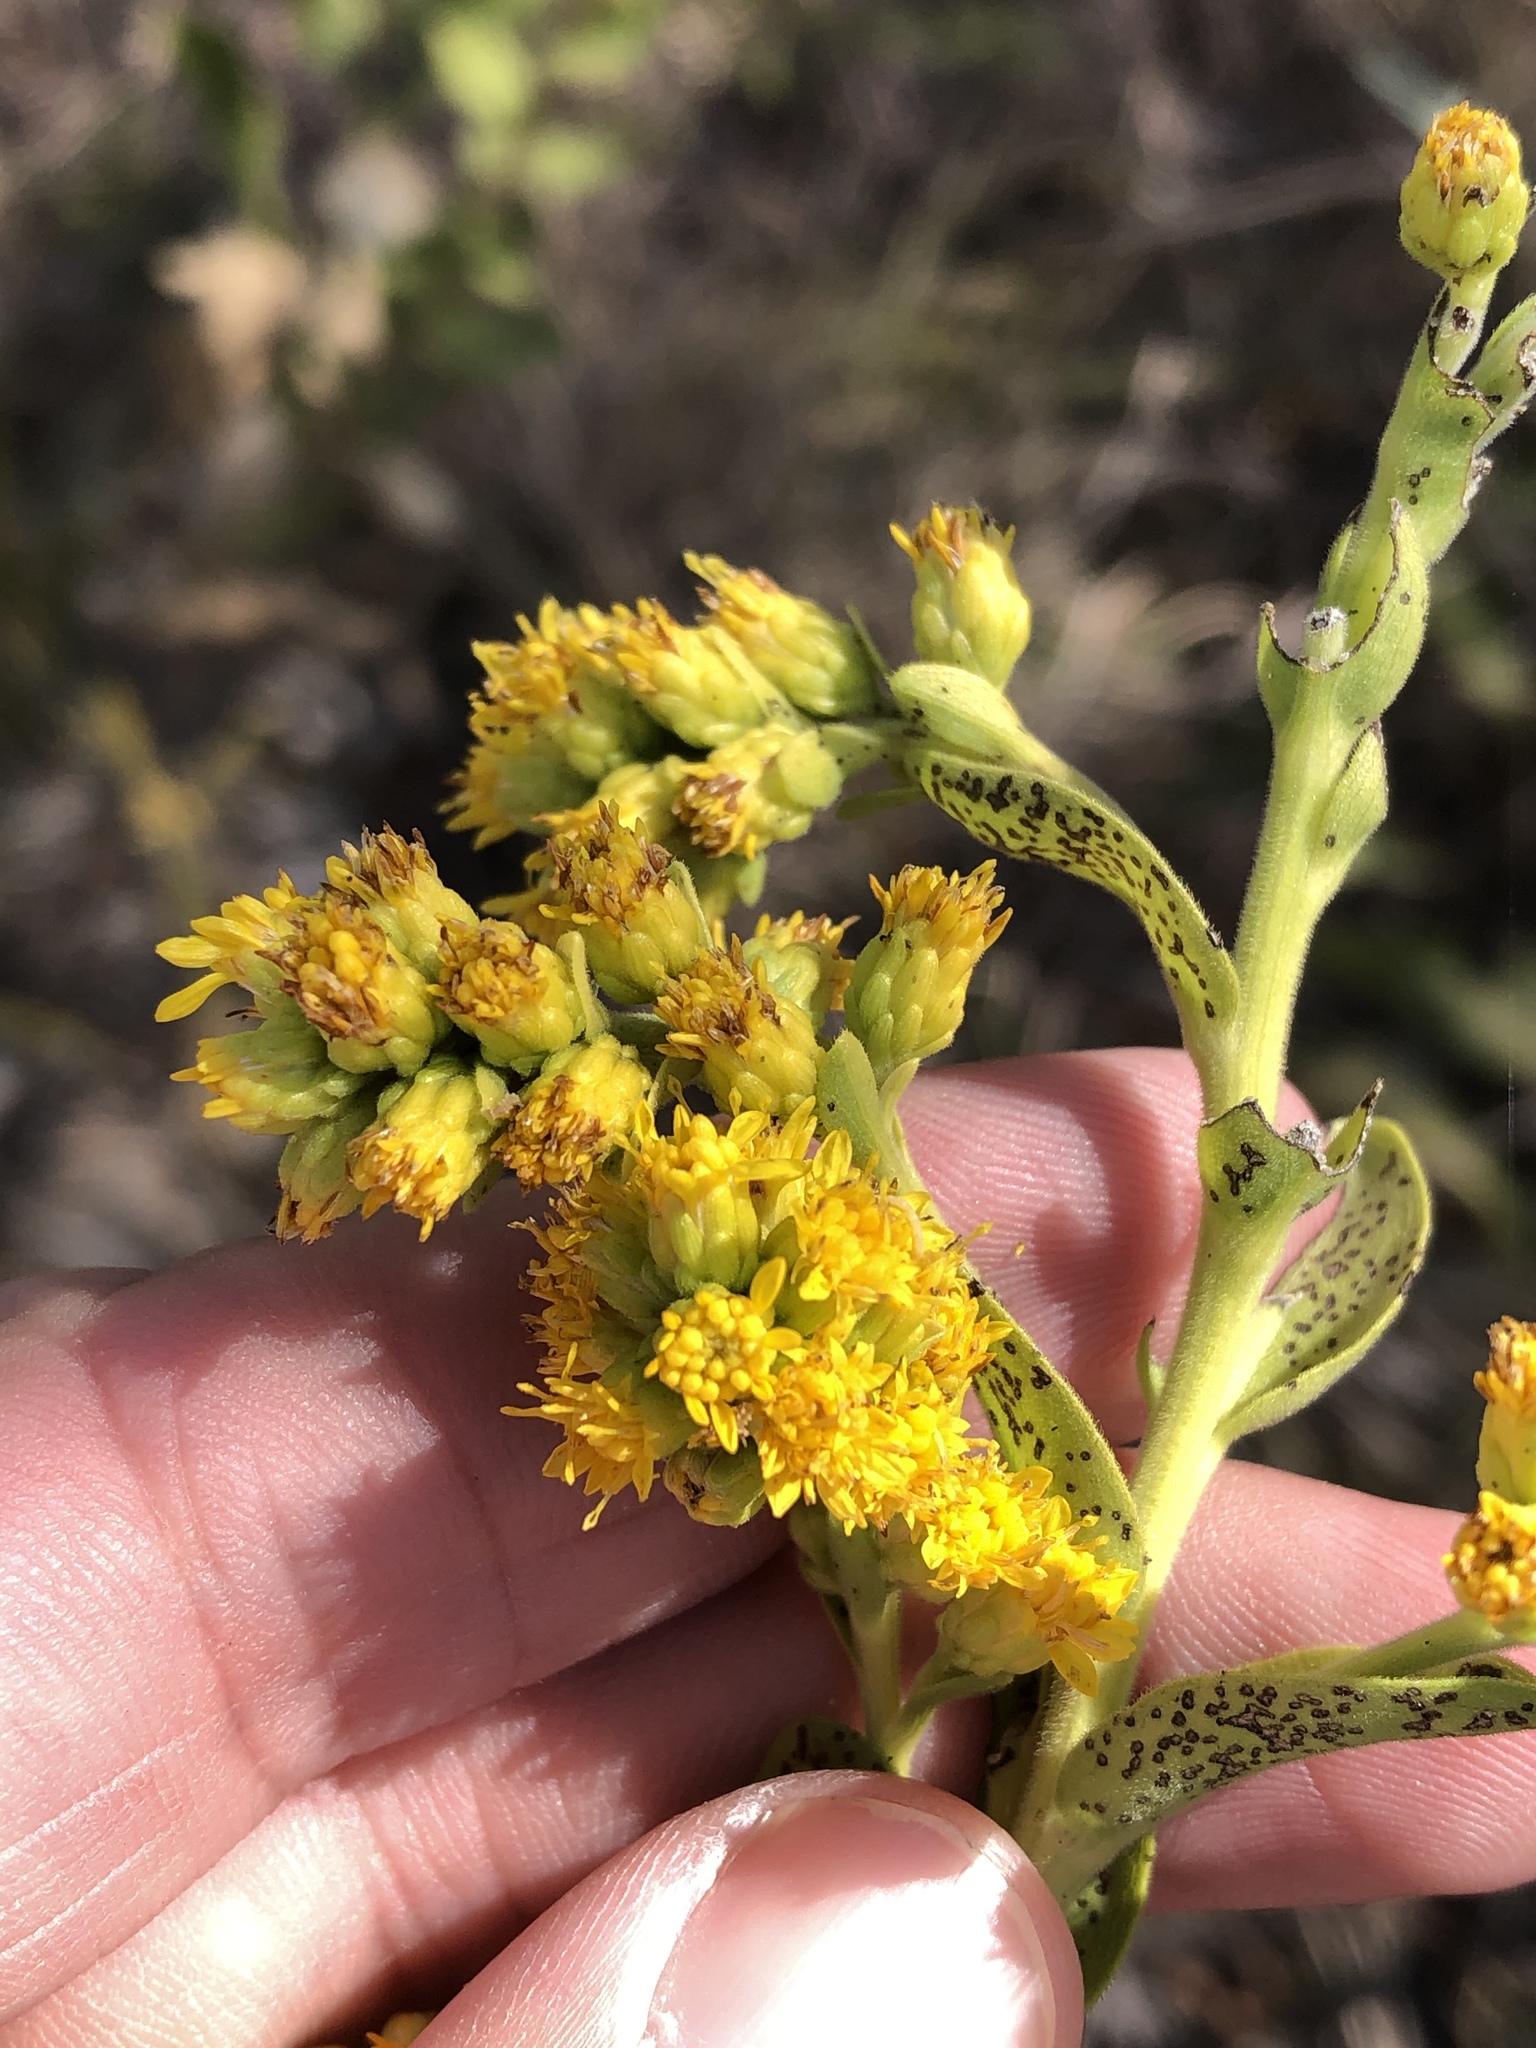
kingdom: Plantae
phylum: Tracheophyta
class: Magnoliopsida
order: Asterales
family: Asteraceae
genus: Solidago
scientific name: Solidago rigida
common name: Rigid goldenrod
